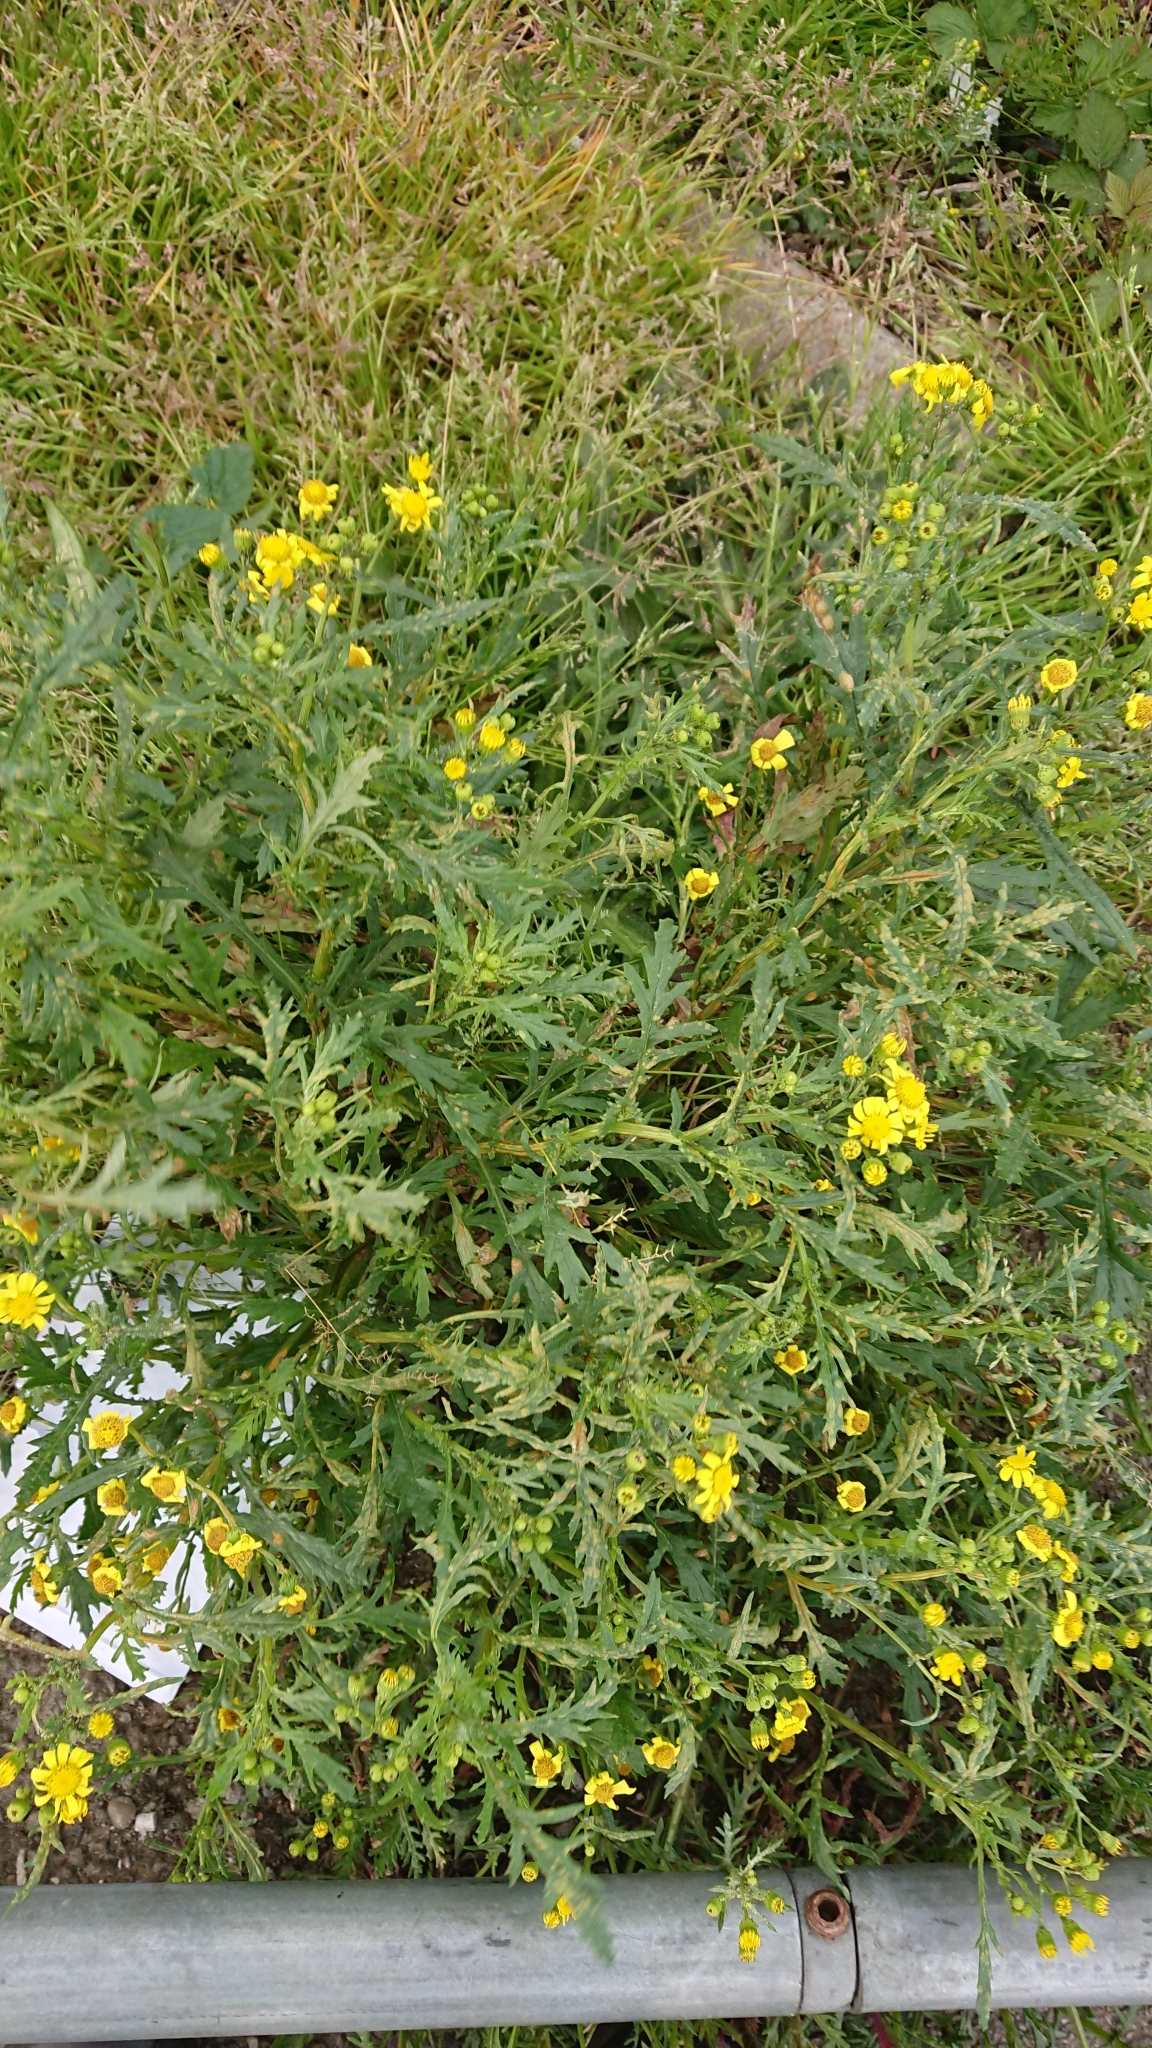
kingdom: Plantae
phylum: Tracheophyta
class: Magnoliopsida
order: Asterales
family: Asteraceae
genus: Senecio
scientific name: Senecio squalidus
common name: Oxford ragwort
